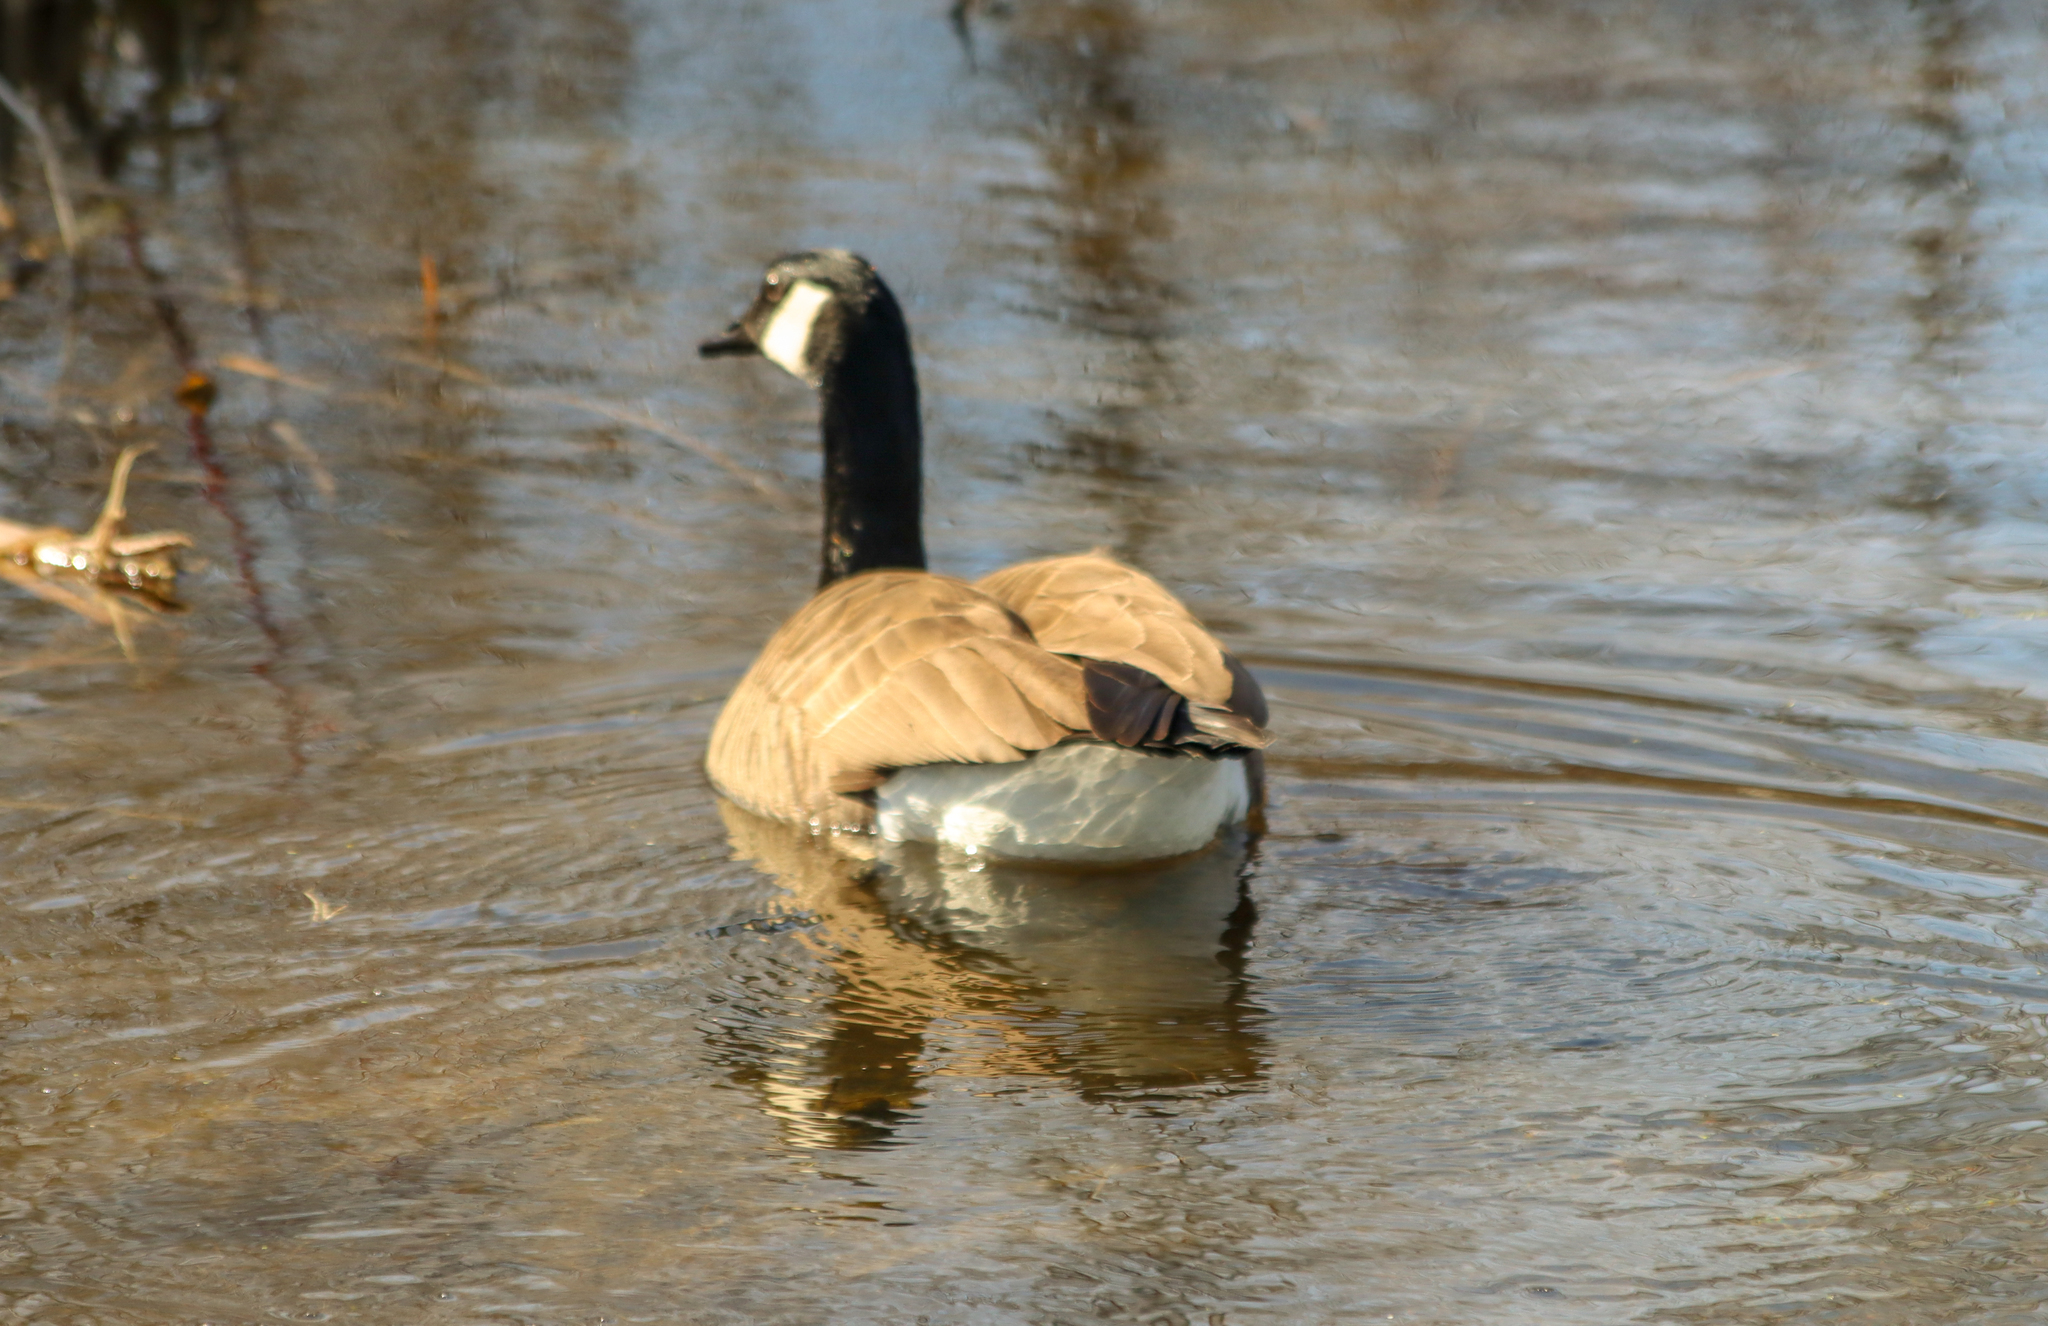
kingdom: Animalia
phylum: Chordata
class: Aves
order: Anseriformes
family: Anatidae
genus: Branta
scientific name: Branta canadensis
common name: Canada goose
